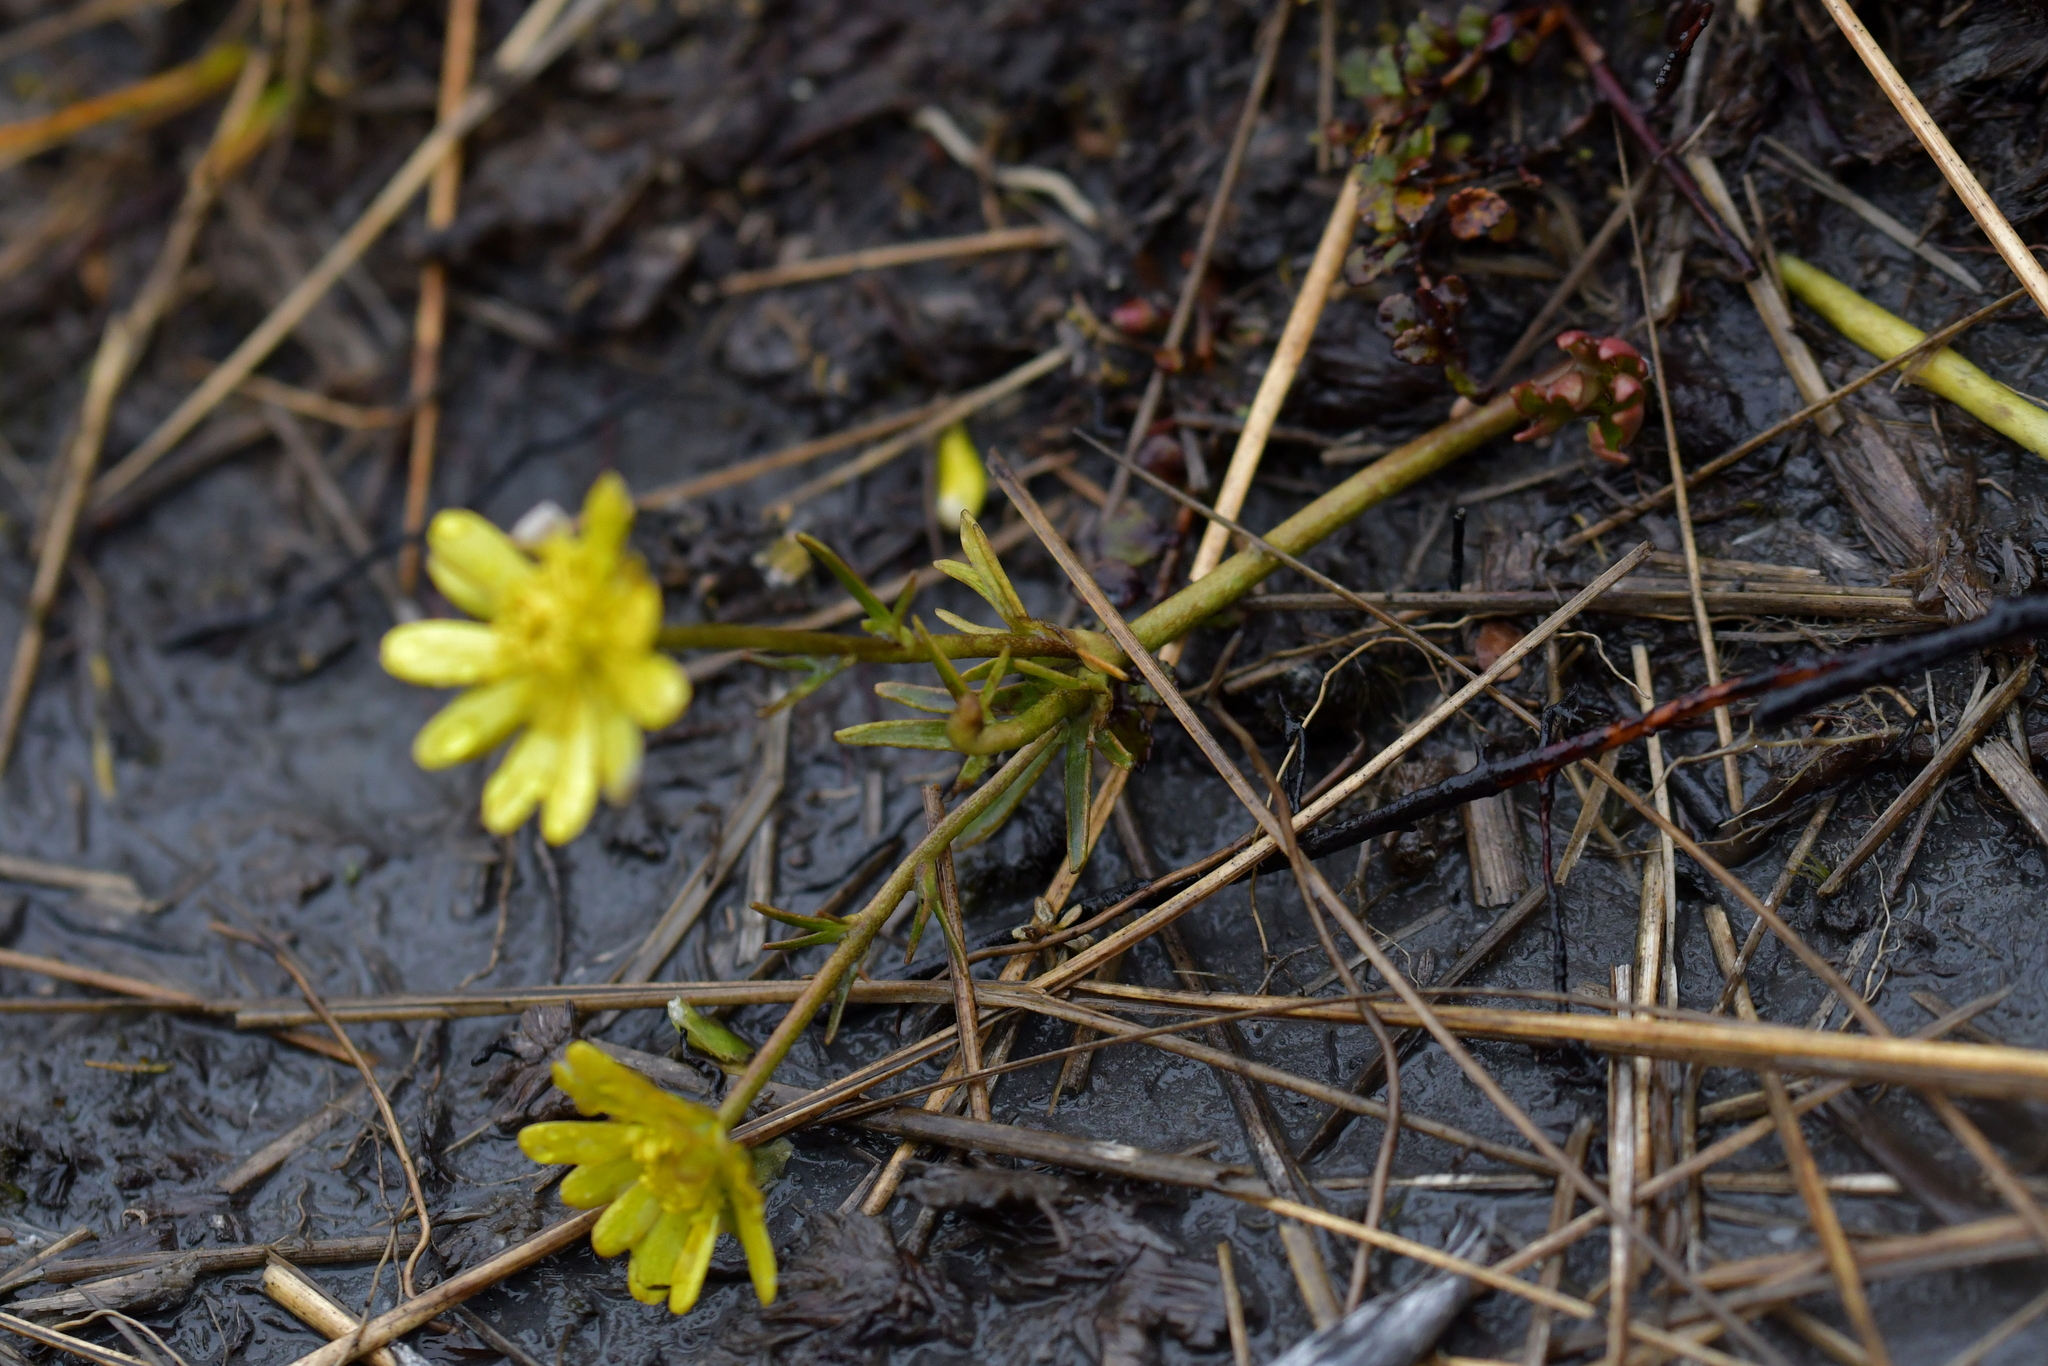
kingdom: Plantae
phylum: Tracheophyta
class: Magnoliopsida
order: Ranunculales
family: Ranunculaceae
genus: Ranunculus
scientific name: Ranunculus verticillatus
